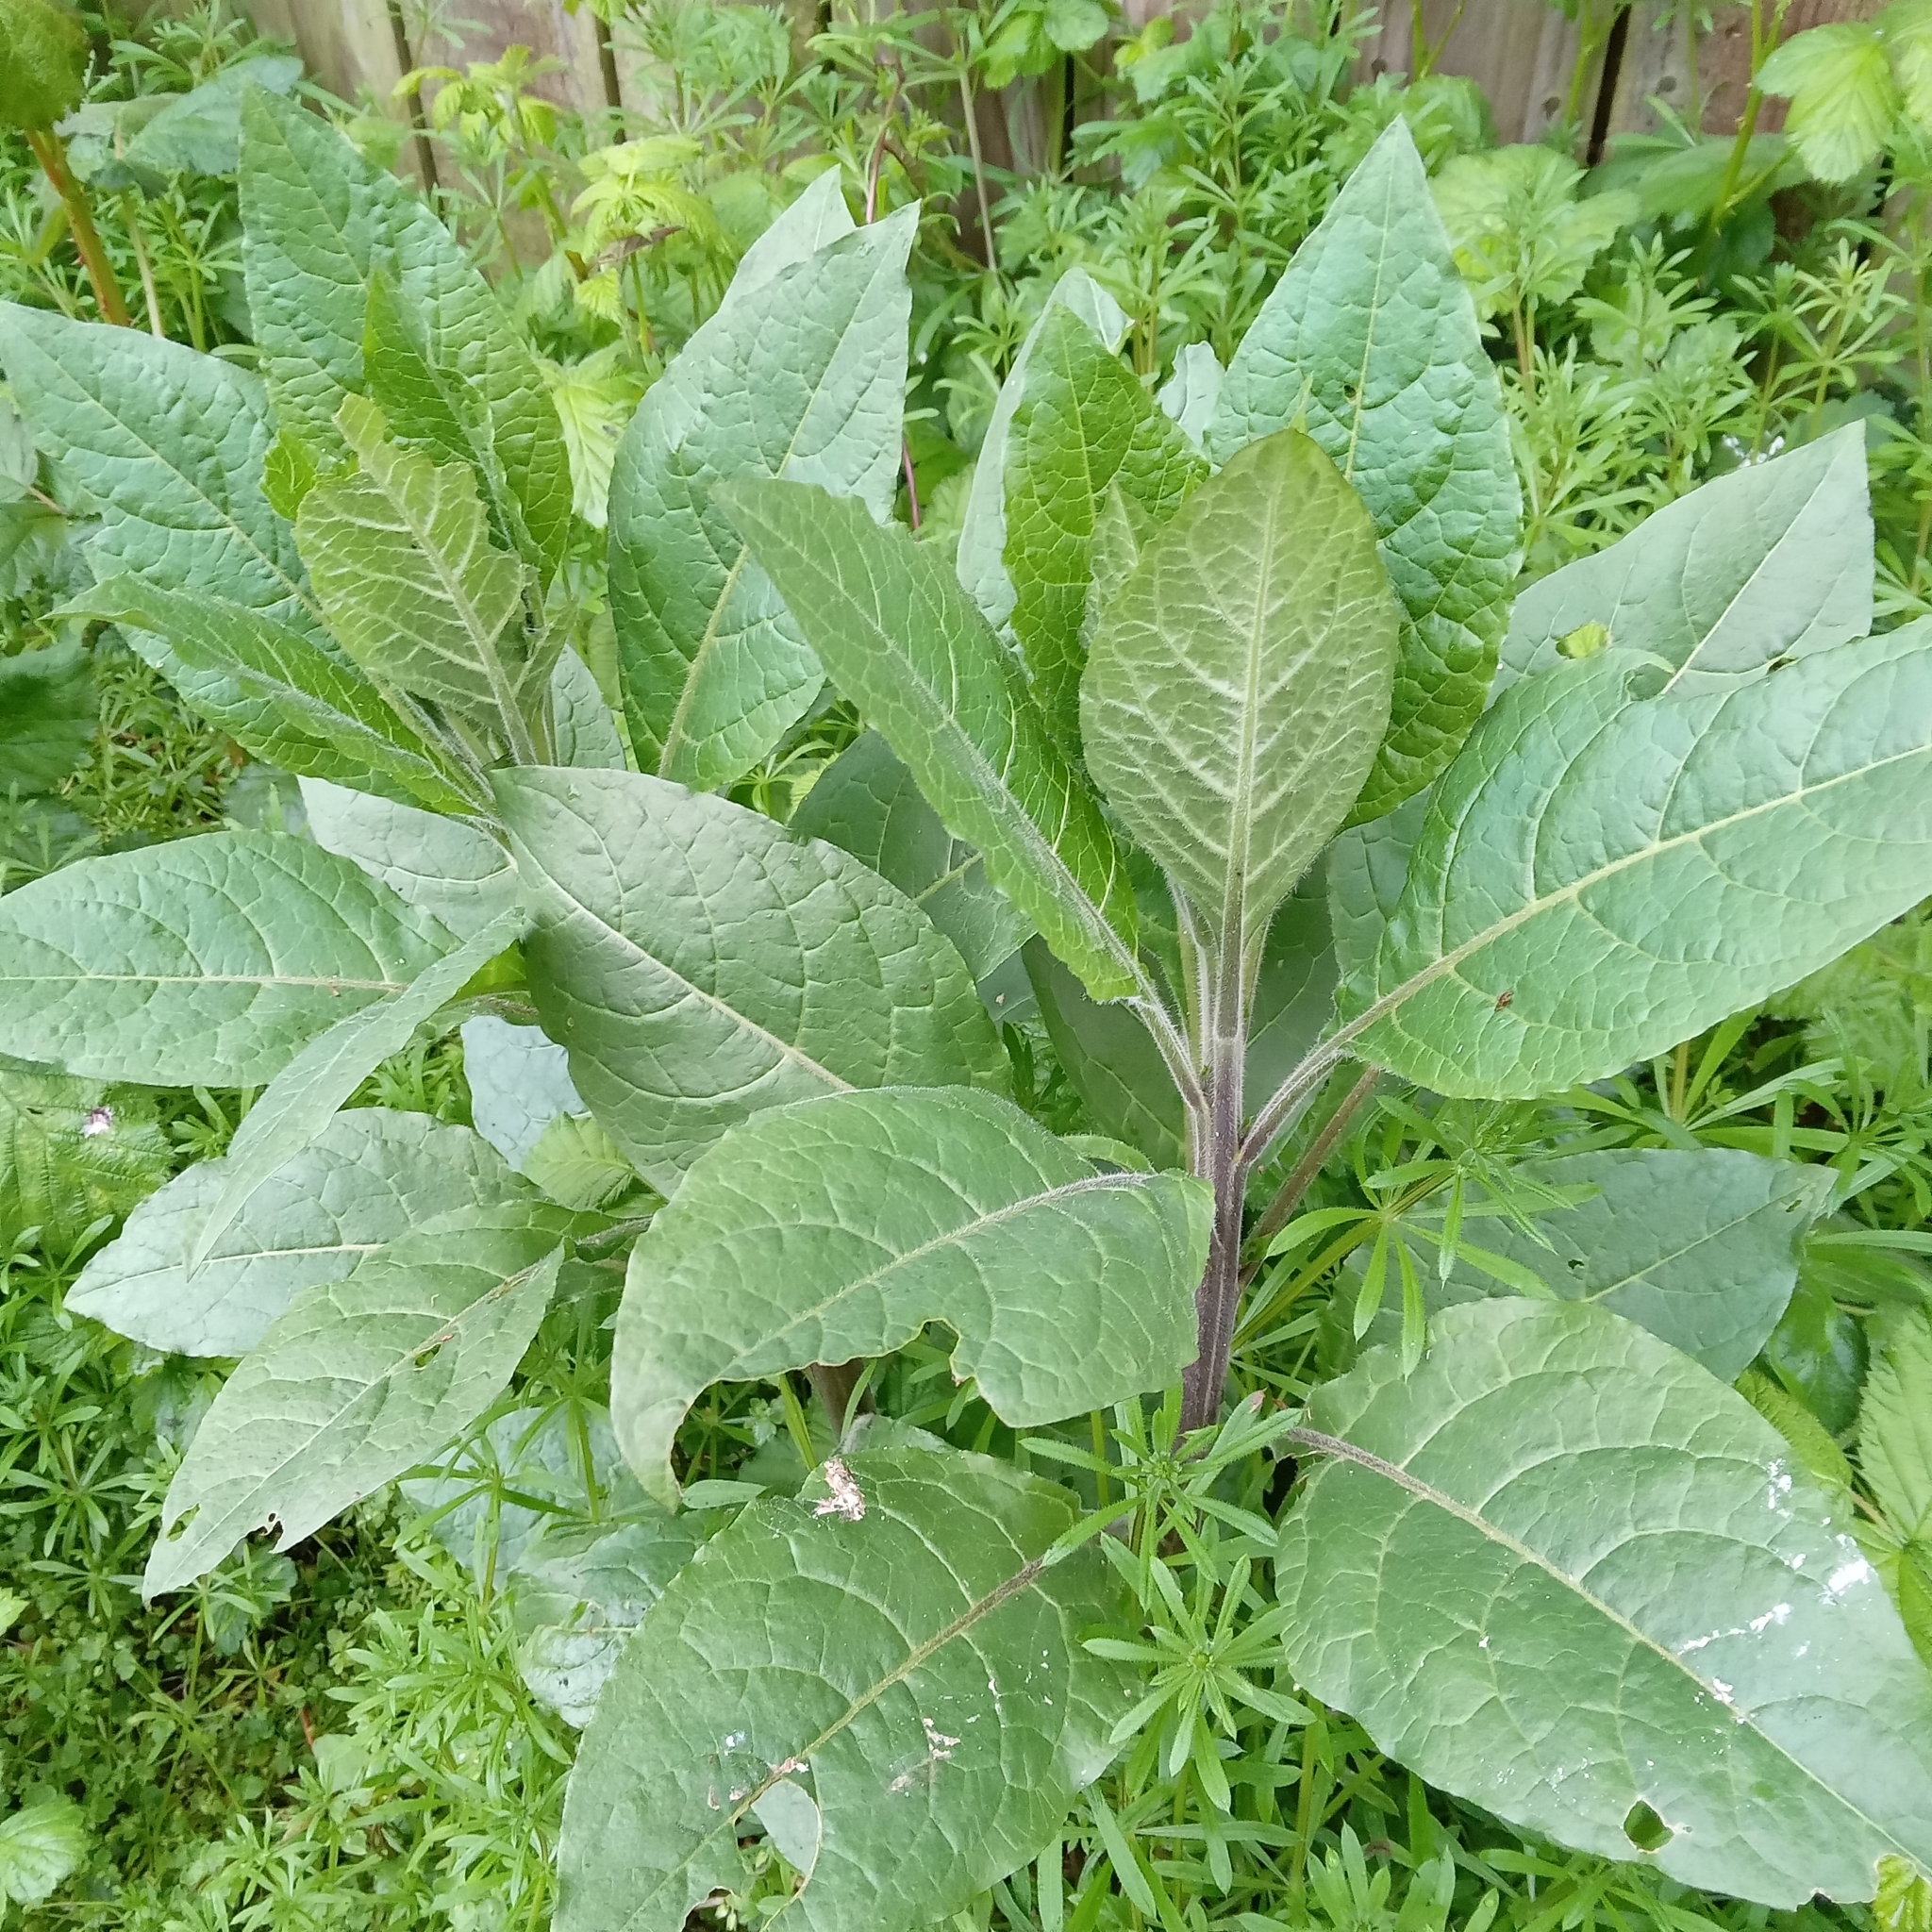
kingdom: Plantae
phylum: Tracheophyta
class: Magnoliopsida
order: Solanales
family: Solanaceae
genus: Atropa
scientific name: Atropa belladonna
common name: Deadly nightshade
